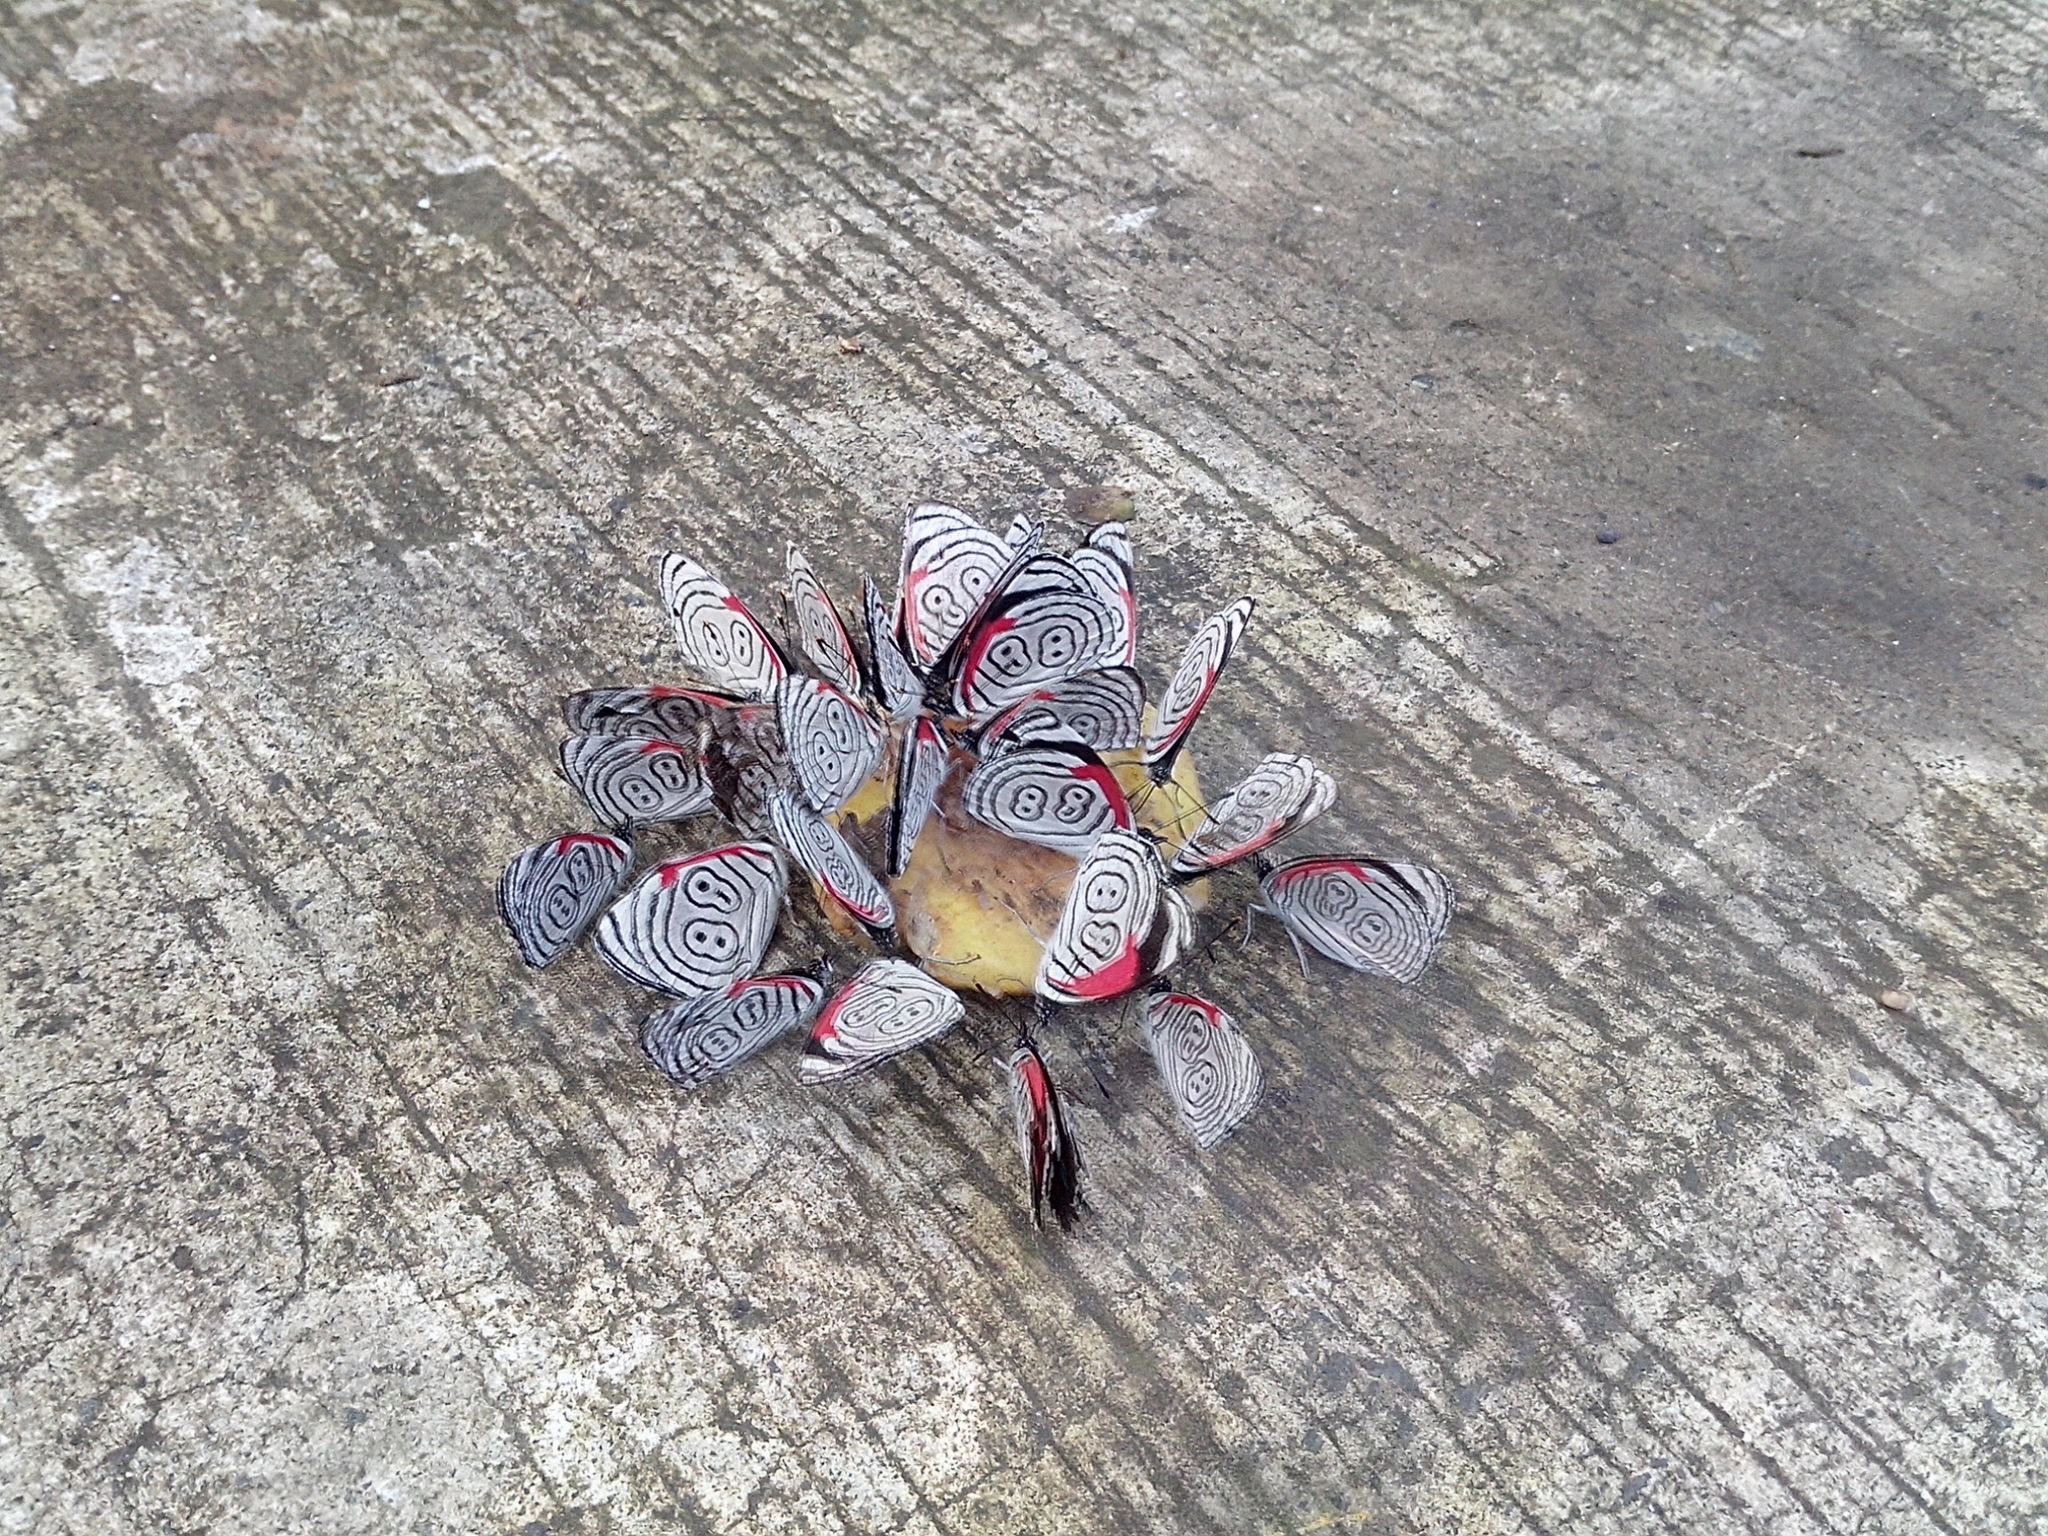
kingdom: Animalia
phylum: Arthropoda
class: Insecta
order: Lepidoptera
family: Nymphalidae
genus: Diaethria
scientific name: Diaethria anna
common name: Anna’s eighty-eight
